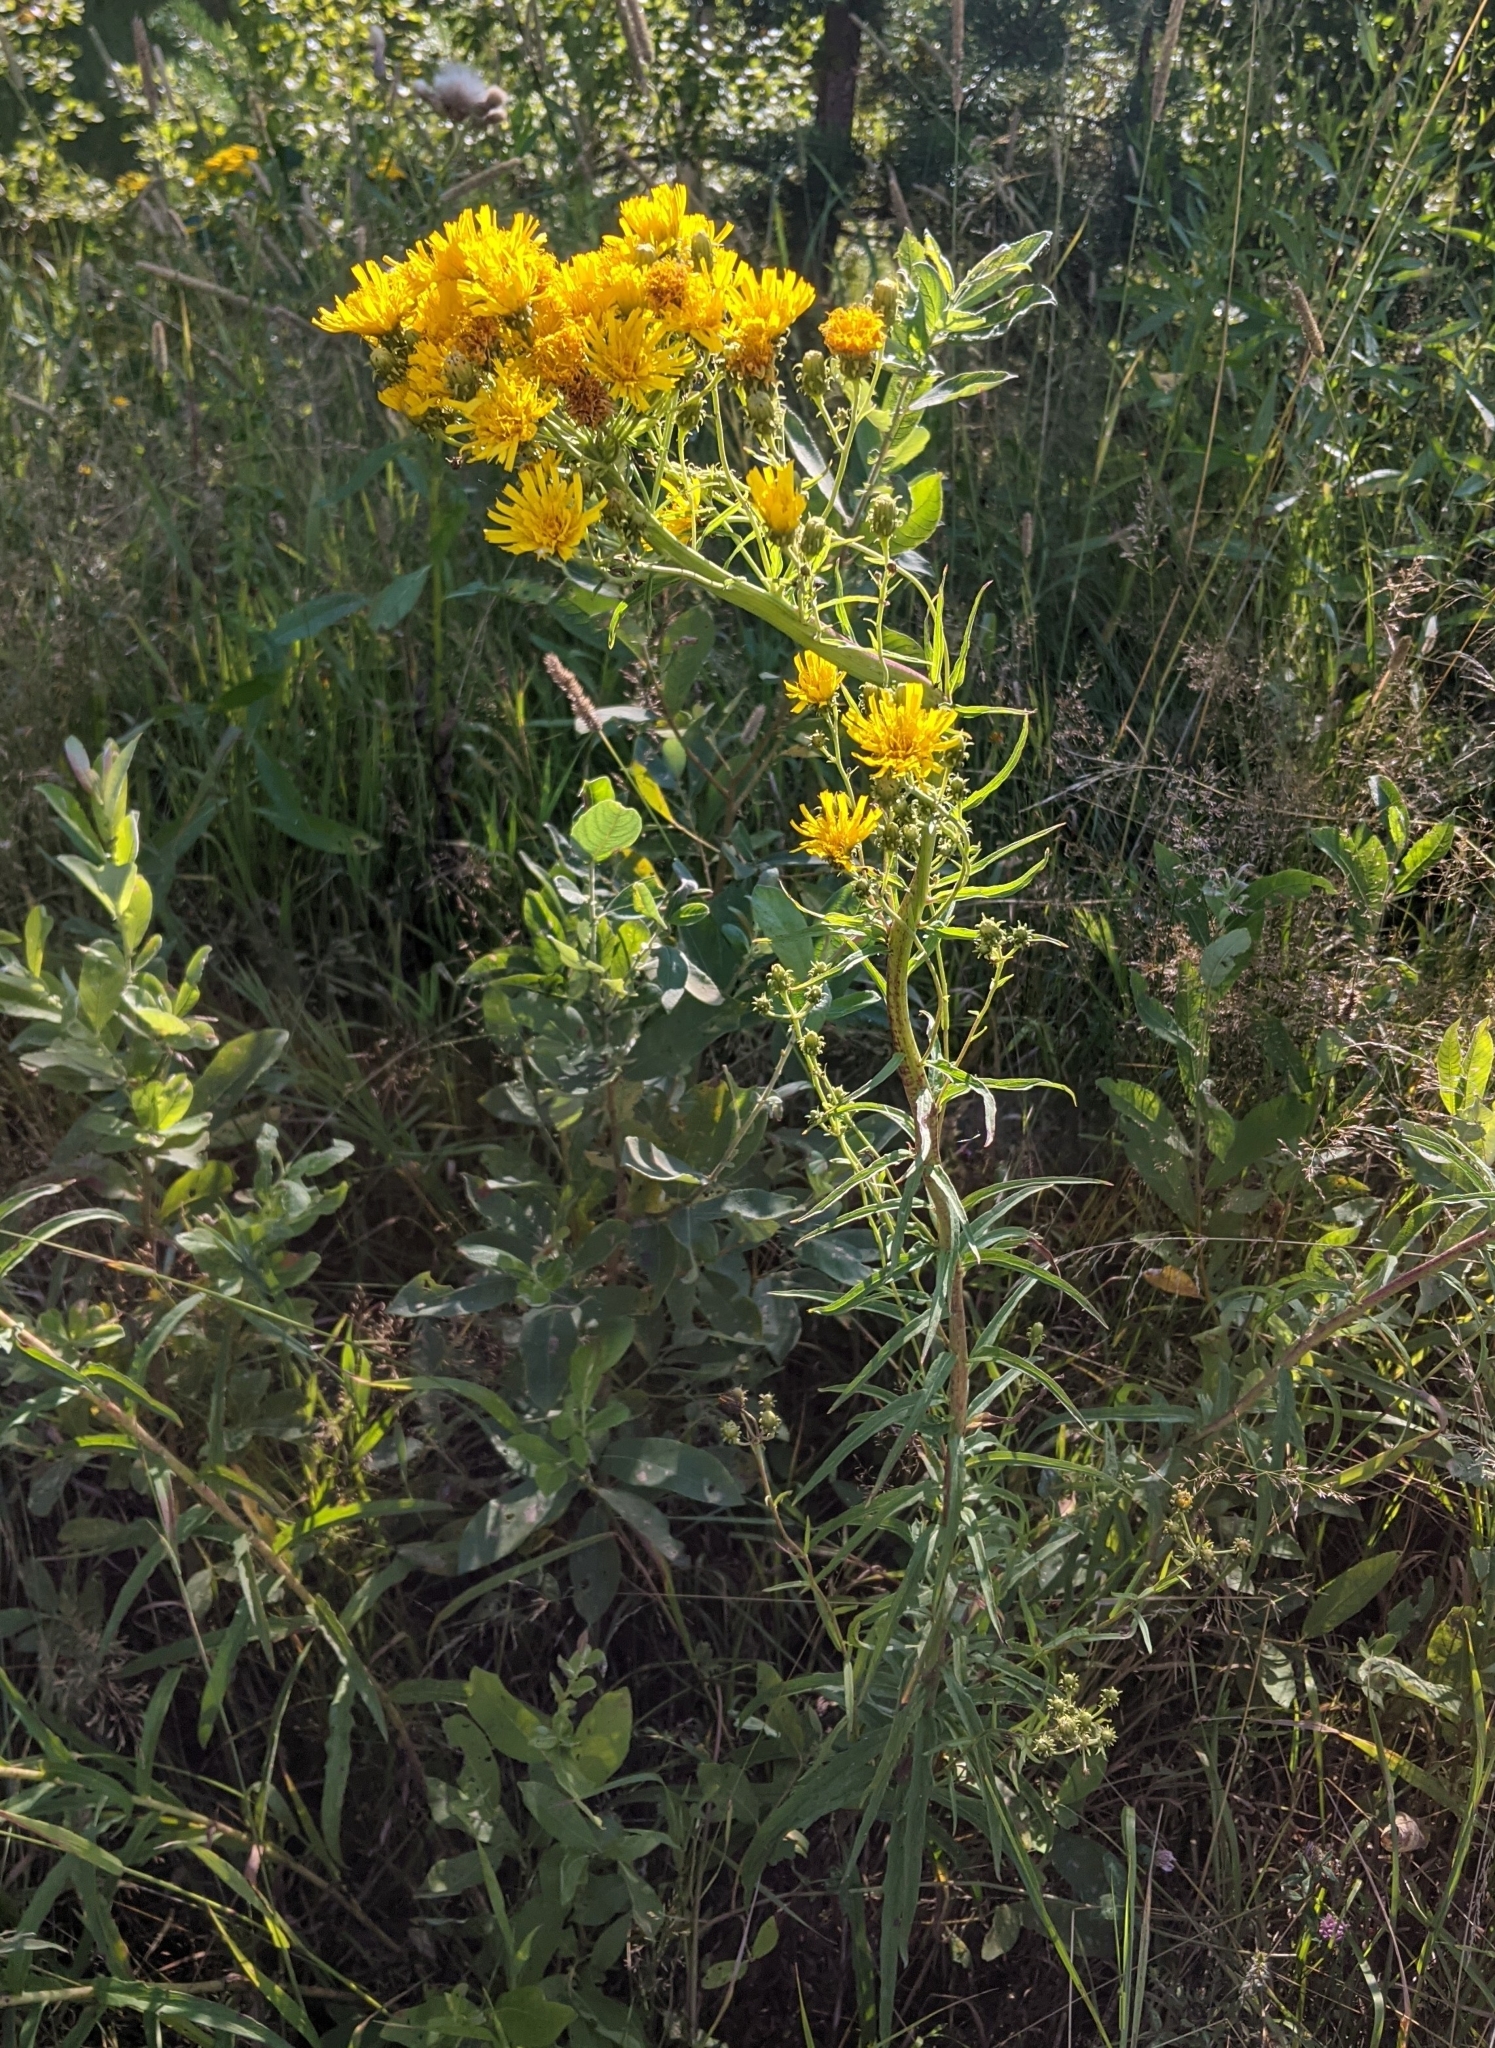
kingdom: Plantae
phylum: Tracheophyta
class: Magnoliopsida
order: Asterales
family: Asteraceae
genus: Hieracium
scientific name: Hieracium umbellatum
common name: Northern hawkweed
